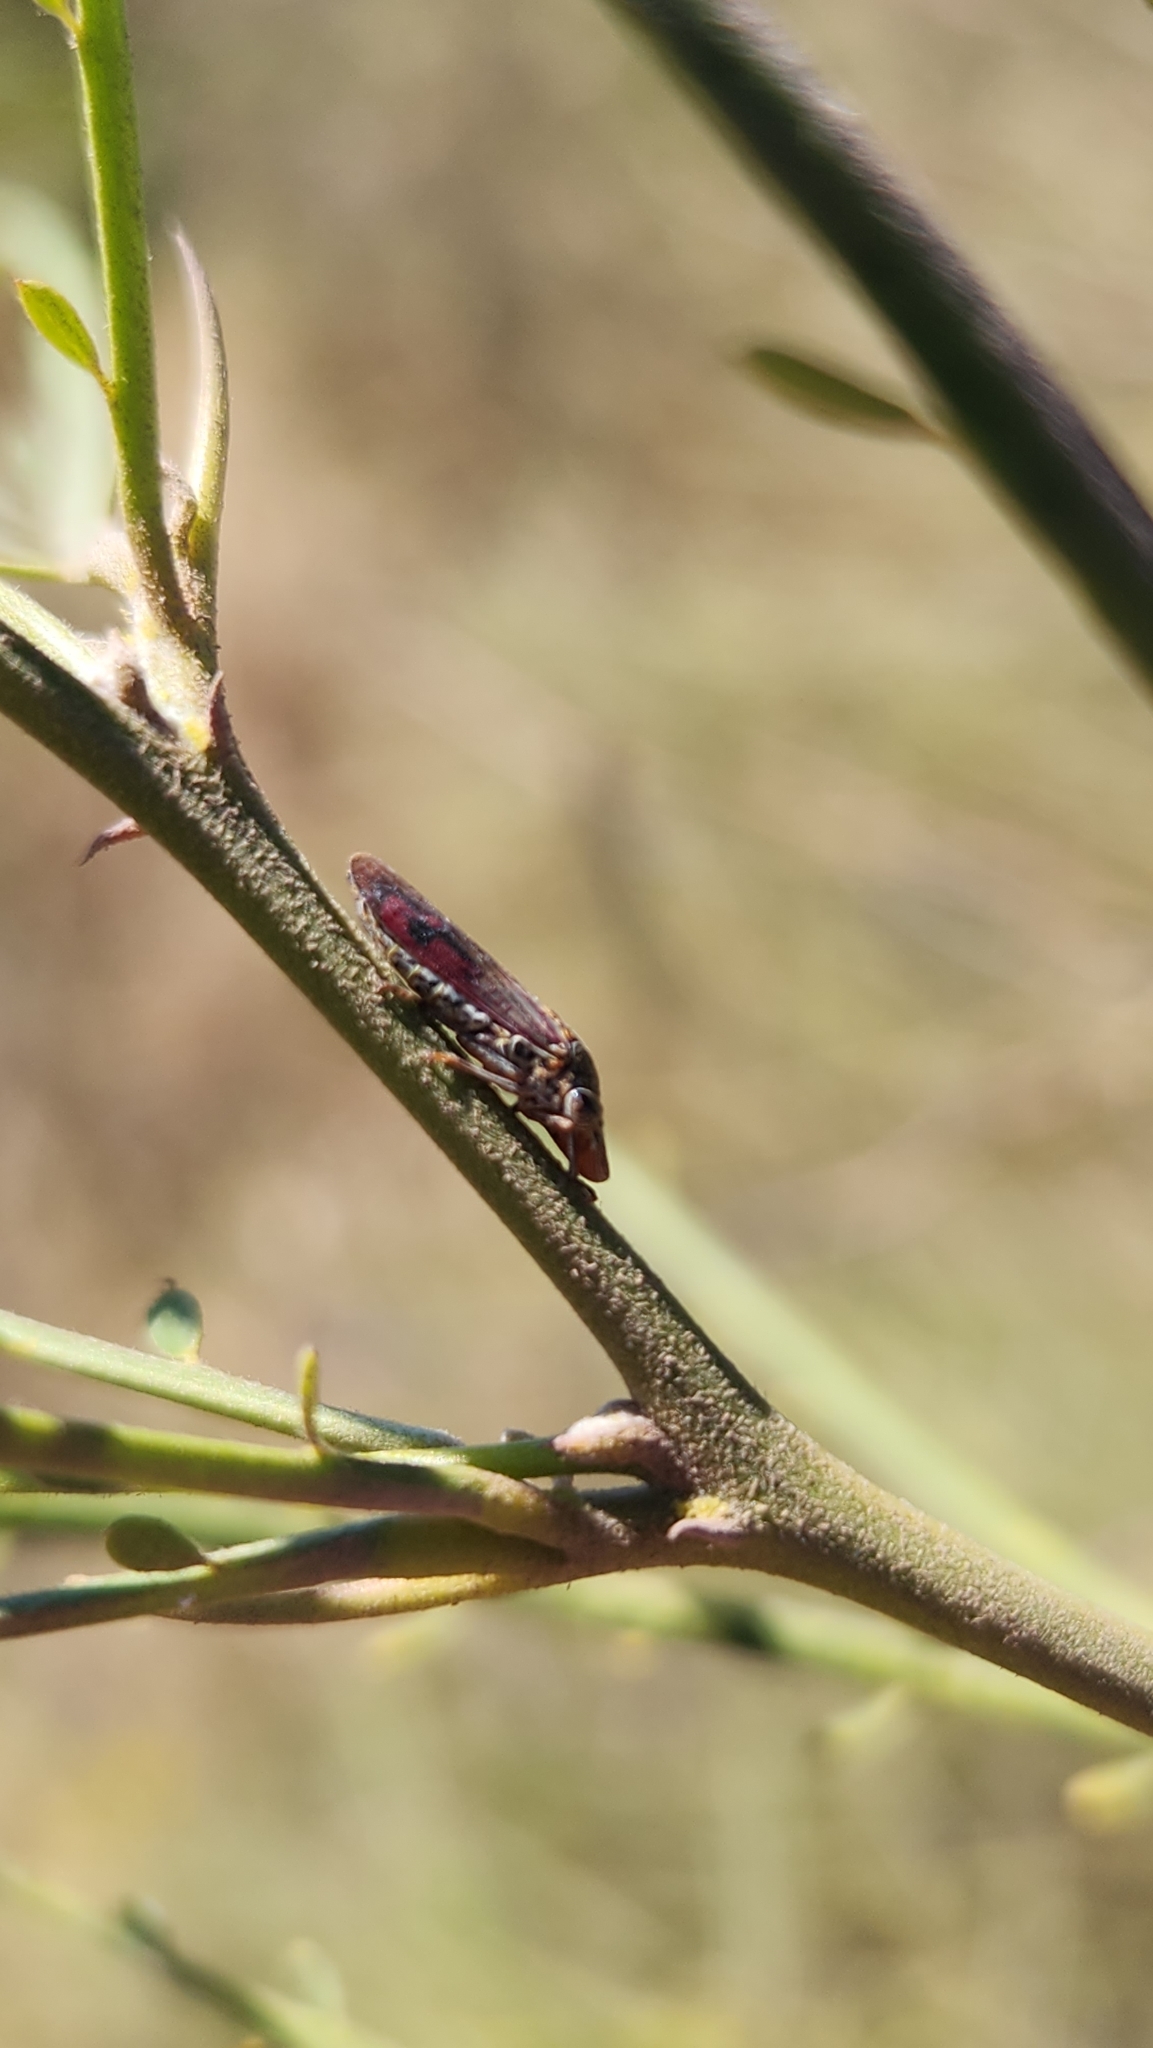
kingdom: Animalia
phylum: Arthropoda
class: Insecta
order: Hemiptera
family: Cicadellidae
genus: Homalodisca
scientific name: Homalodisca liturata
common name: Lacertate sharpshooter
